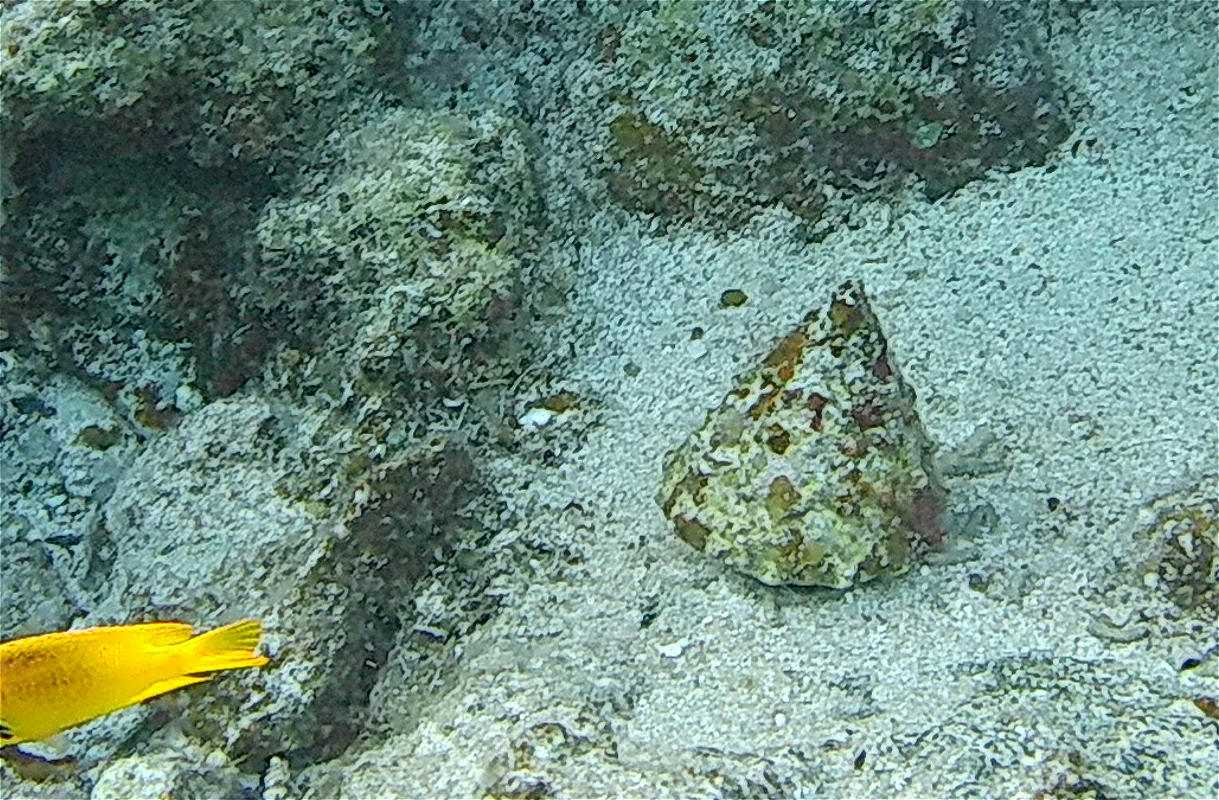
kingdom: Animalia
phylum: Mollusca
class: Gastropoda
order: Trochida
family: Tegulidae
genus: Tectus
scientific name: Tectus dentatus
